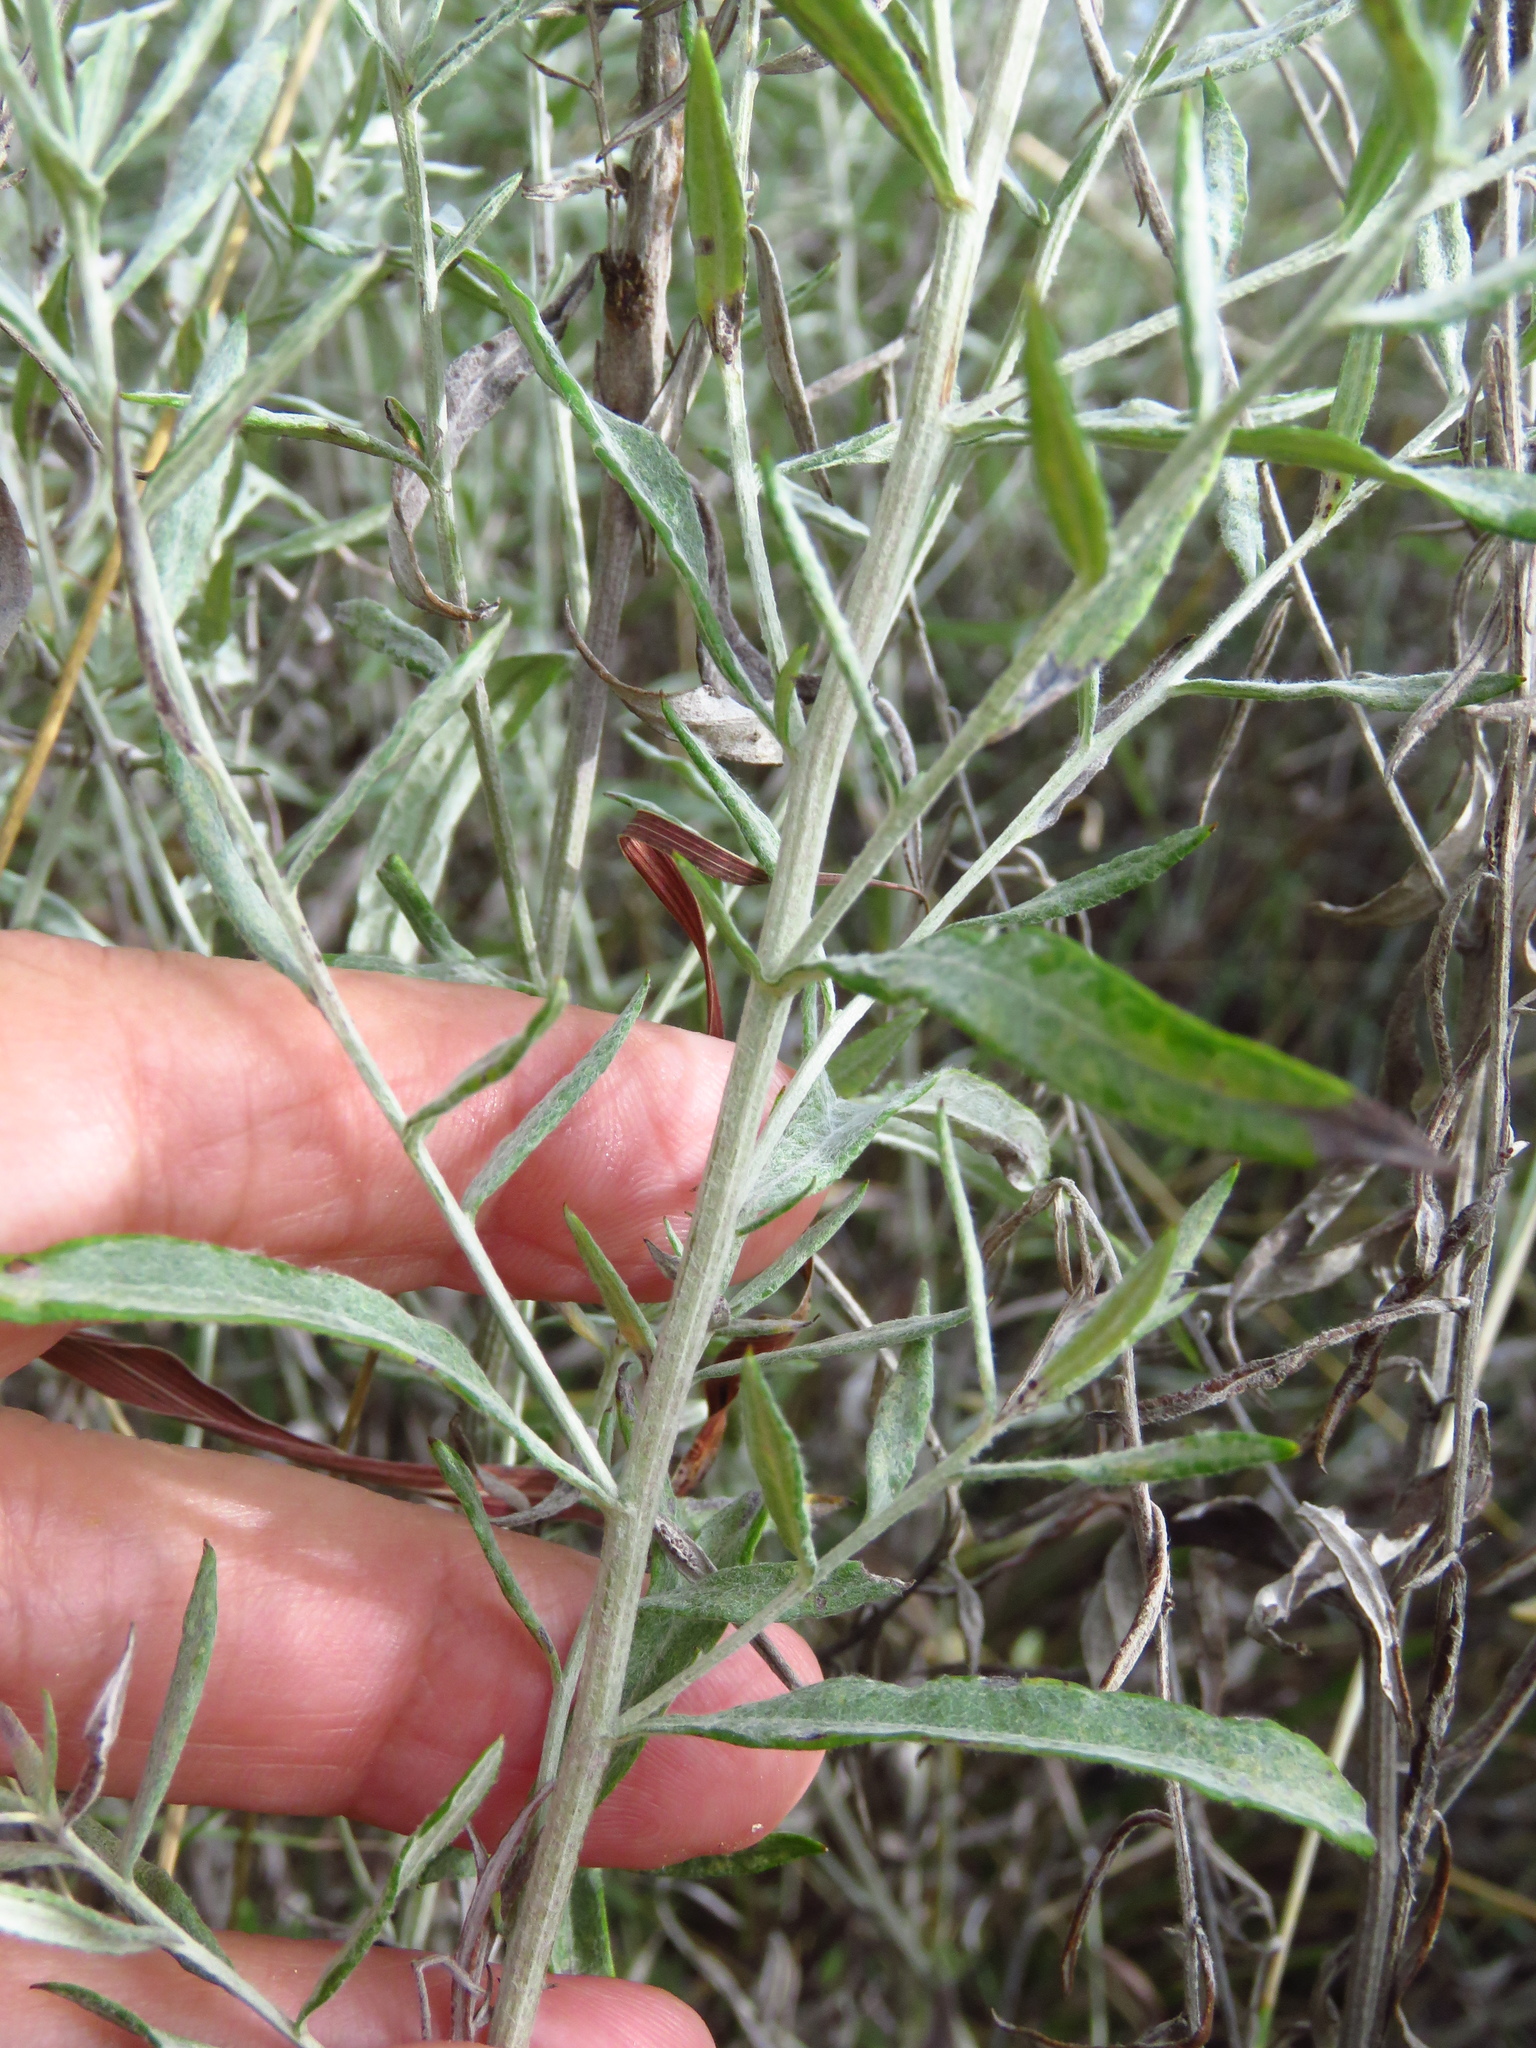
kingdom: Plantae
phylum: Tracheophyta
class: Magnoliopsida
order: Asterales
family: Asteraceae
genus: Artemisia
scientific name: Artemisia ludoviciana
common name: Western mugwort
